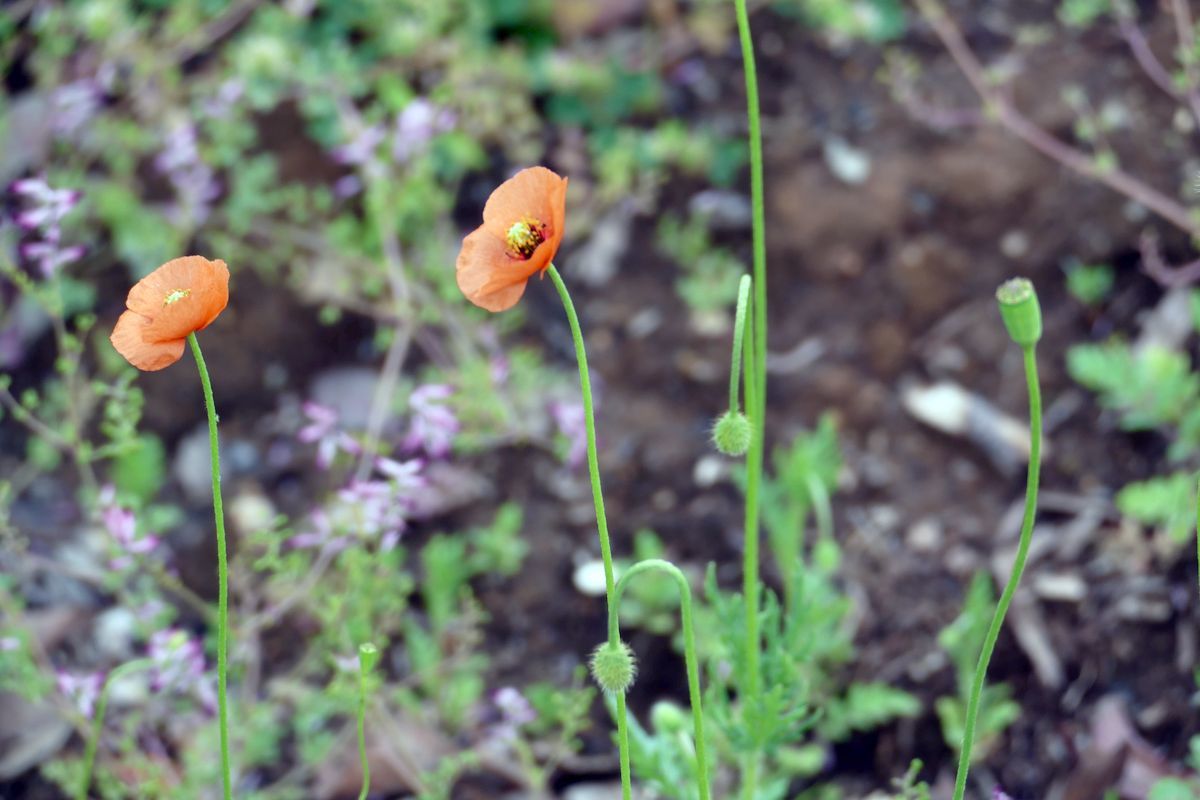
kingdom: Plantae
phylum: Tracheophyta
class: Magnoliopsida
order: Ranunculales
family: Papaveraceae
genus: Papaver
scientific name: Papaver dubium
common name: Long-headed poppy
